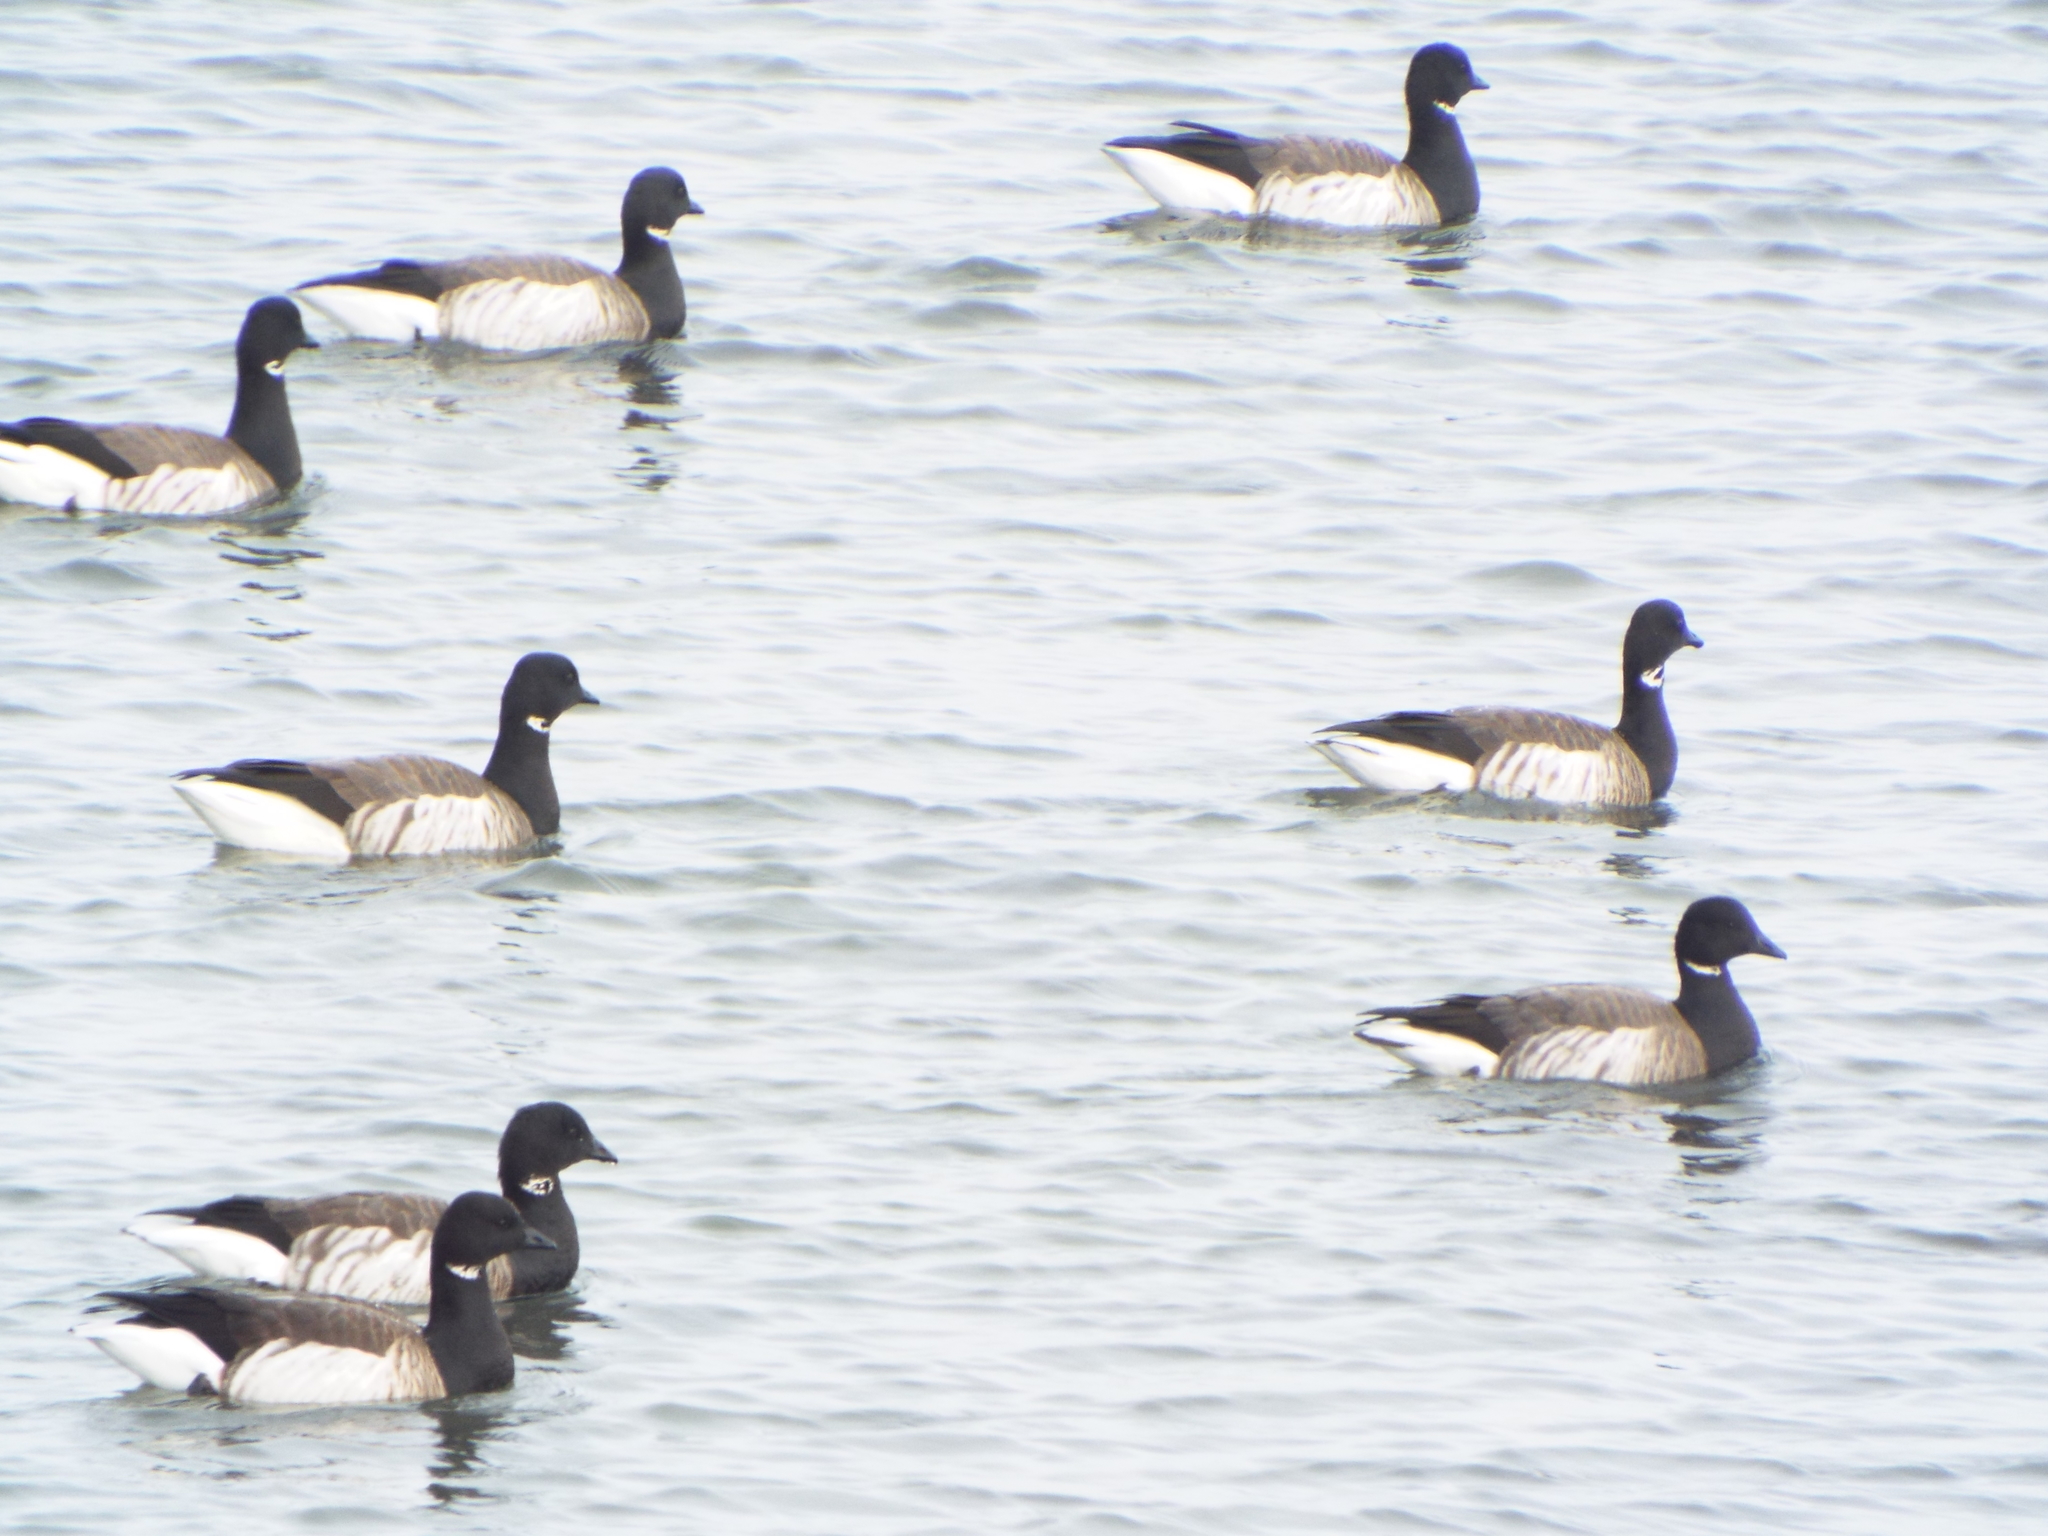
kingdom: Animalia
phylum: Chordata
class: Aves
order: Anseriformes
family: Anatidae
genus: Branta
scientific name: Branta bernicla
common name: Brant goose
